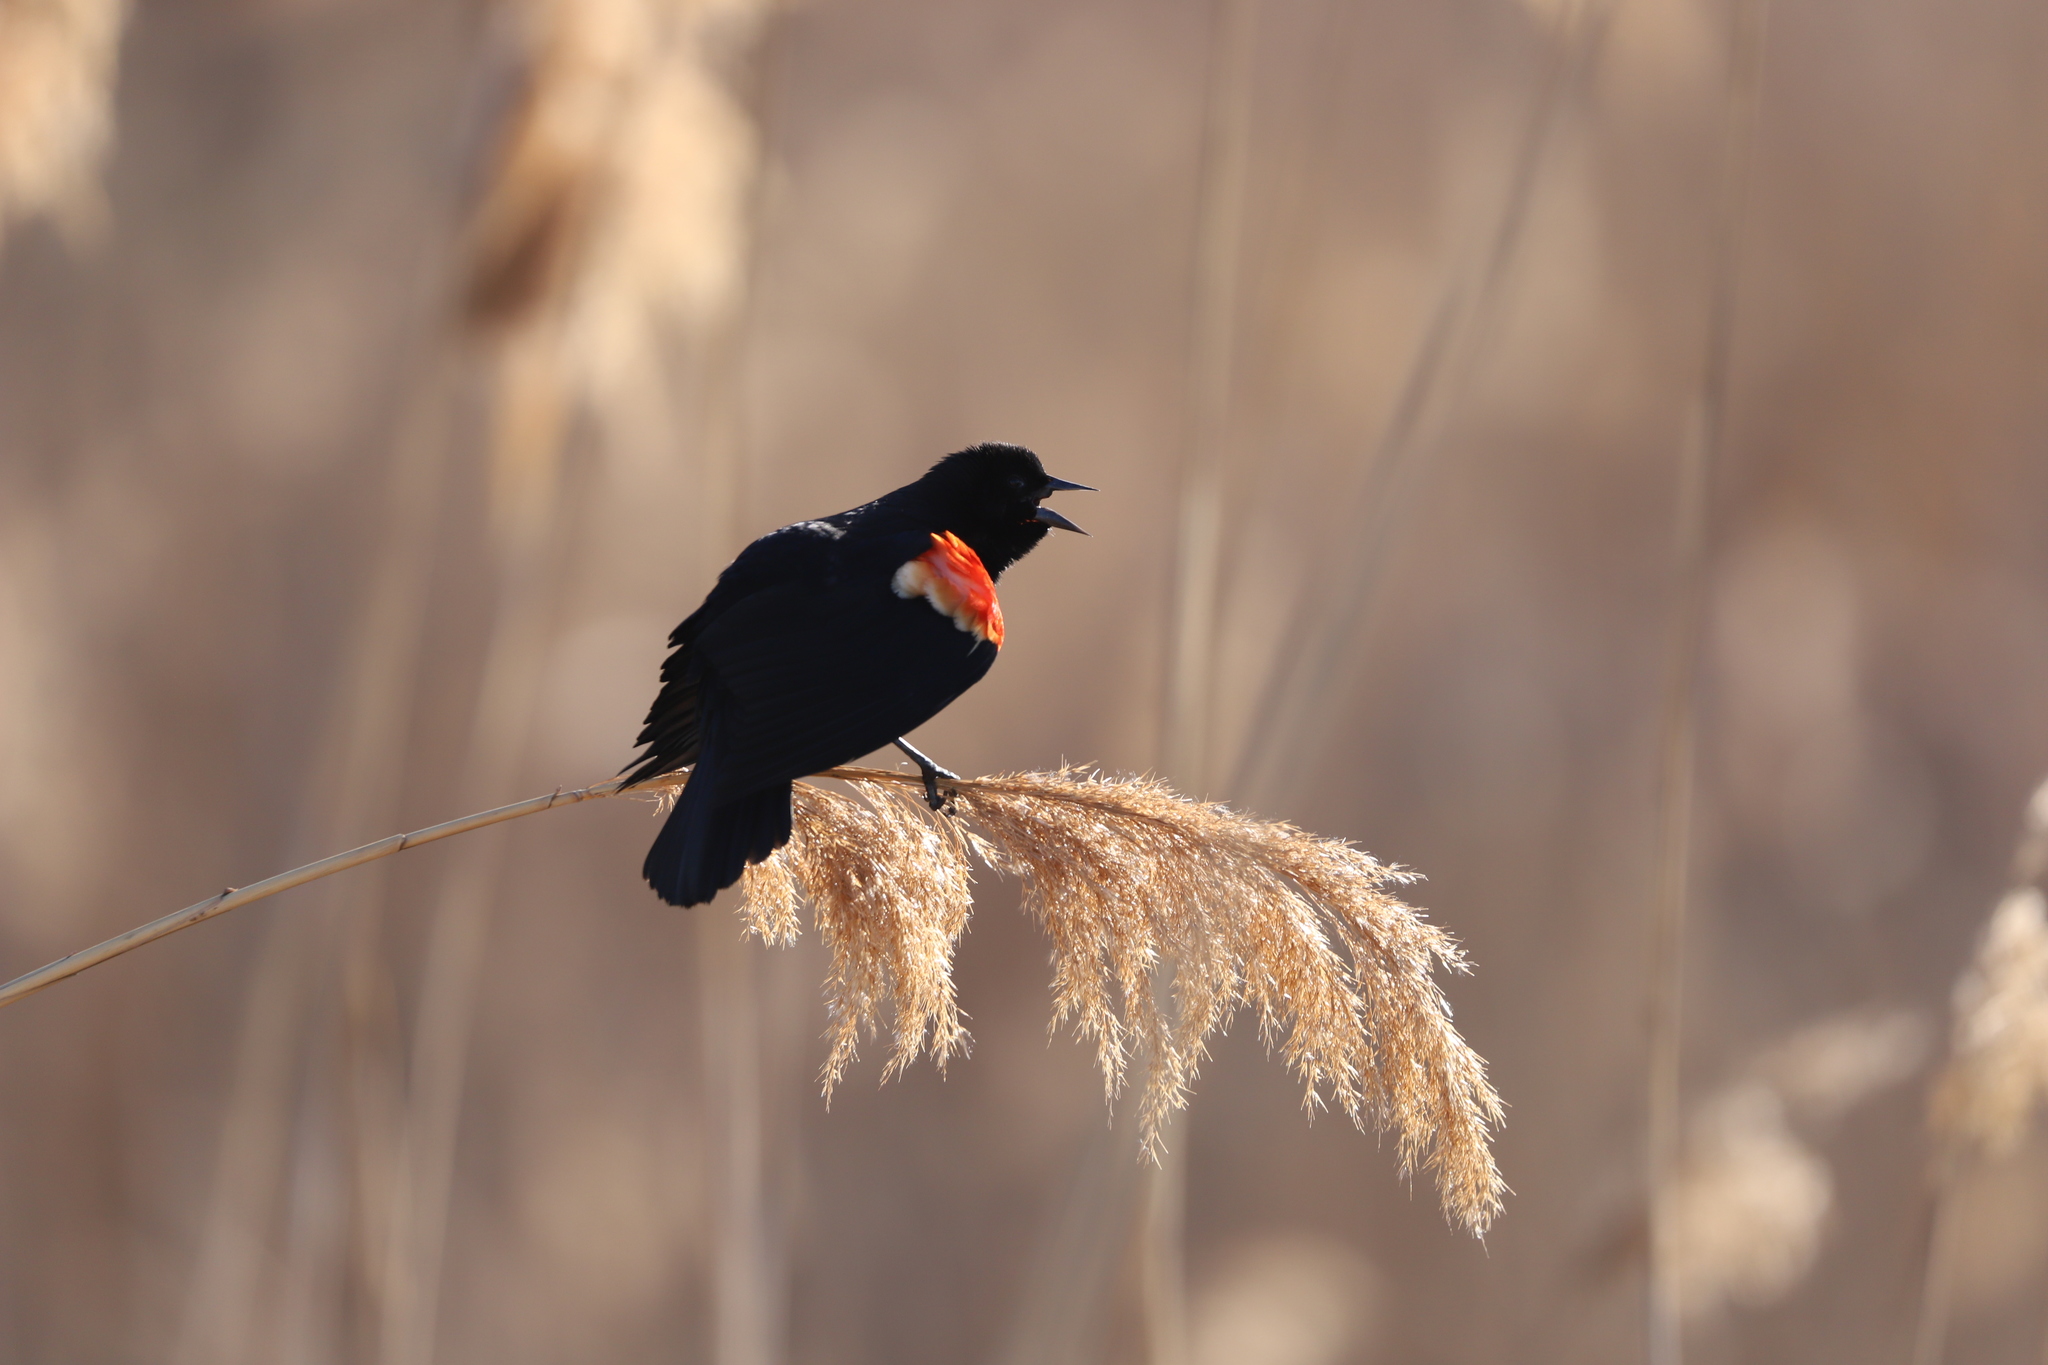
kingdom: Animalia
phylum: Chordata
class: Aves
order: Passeriformes
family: Icteridae
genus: Agelaius
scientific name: Agelaius phoeniceus
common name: Red-winged blackbird
